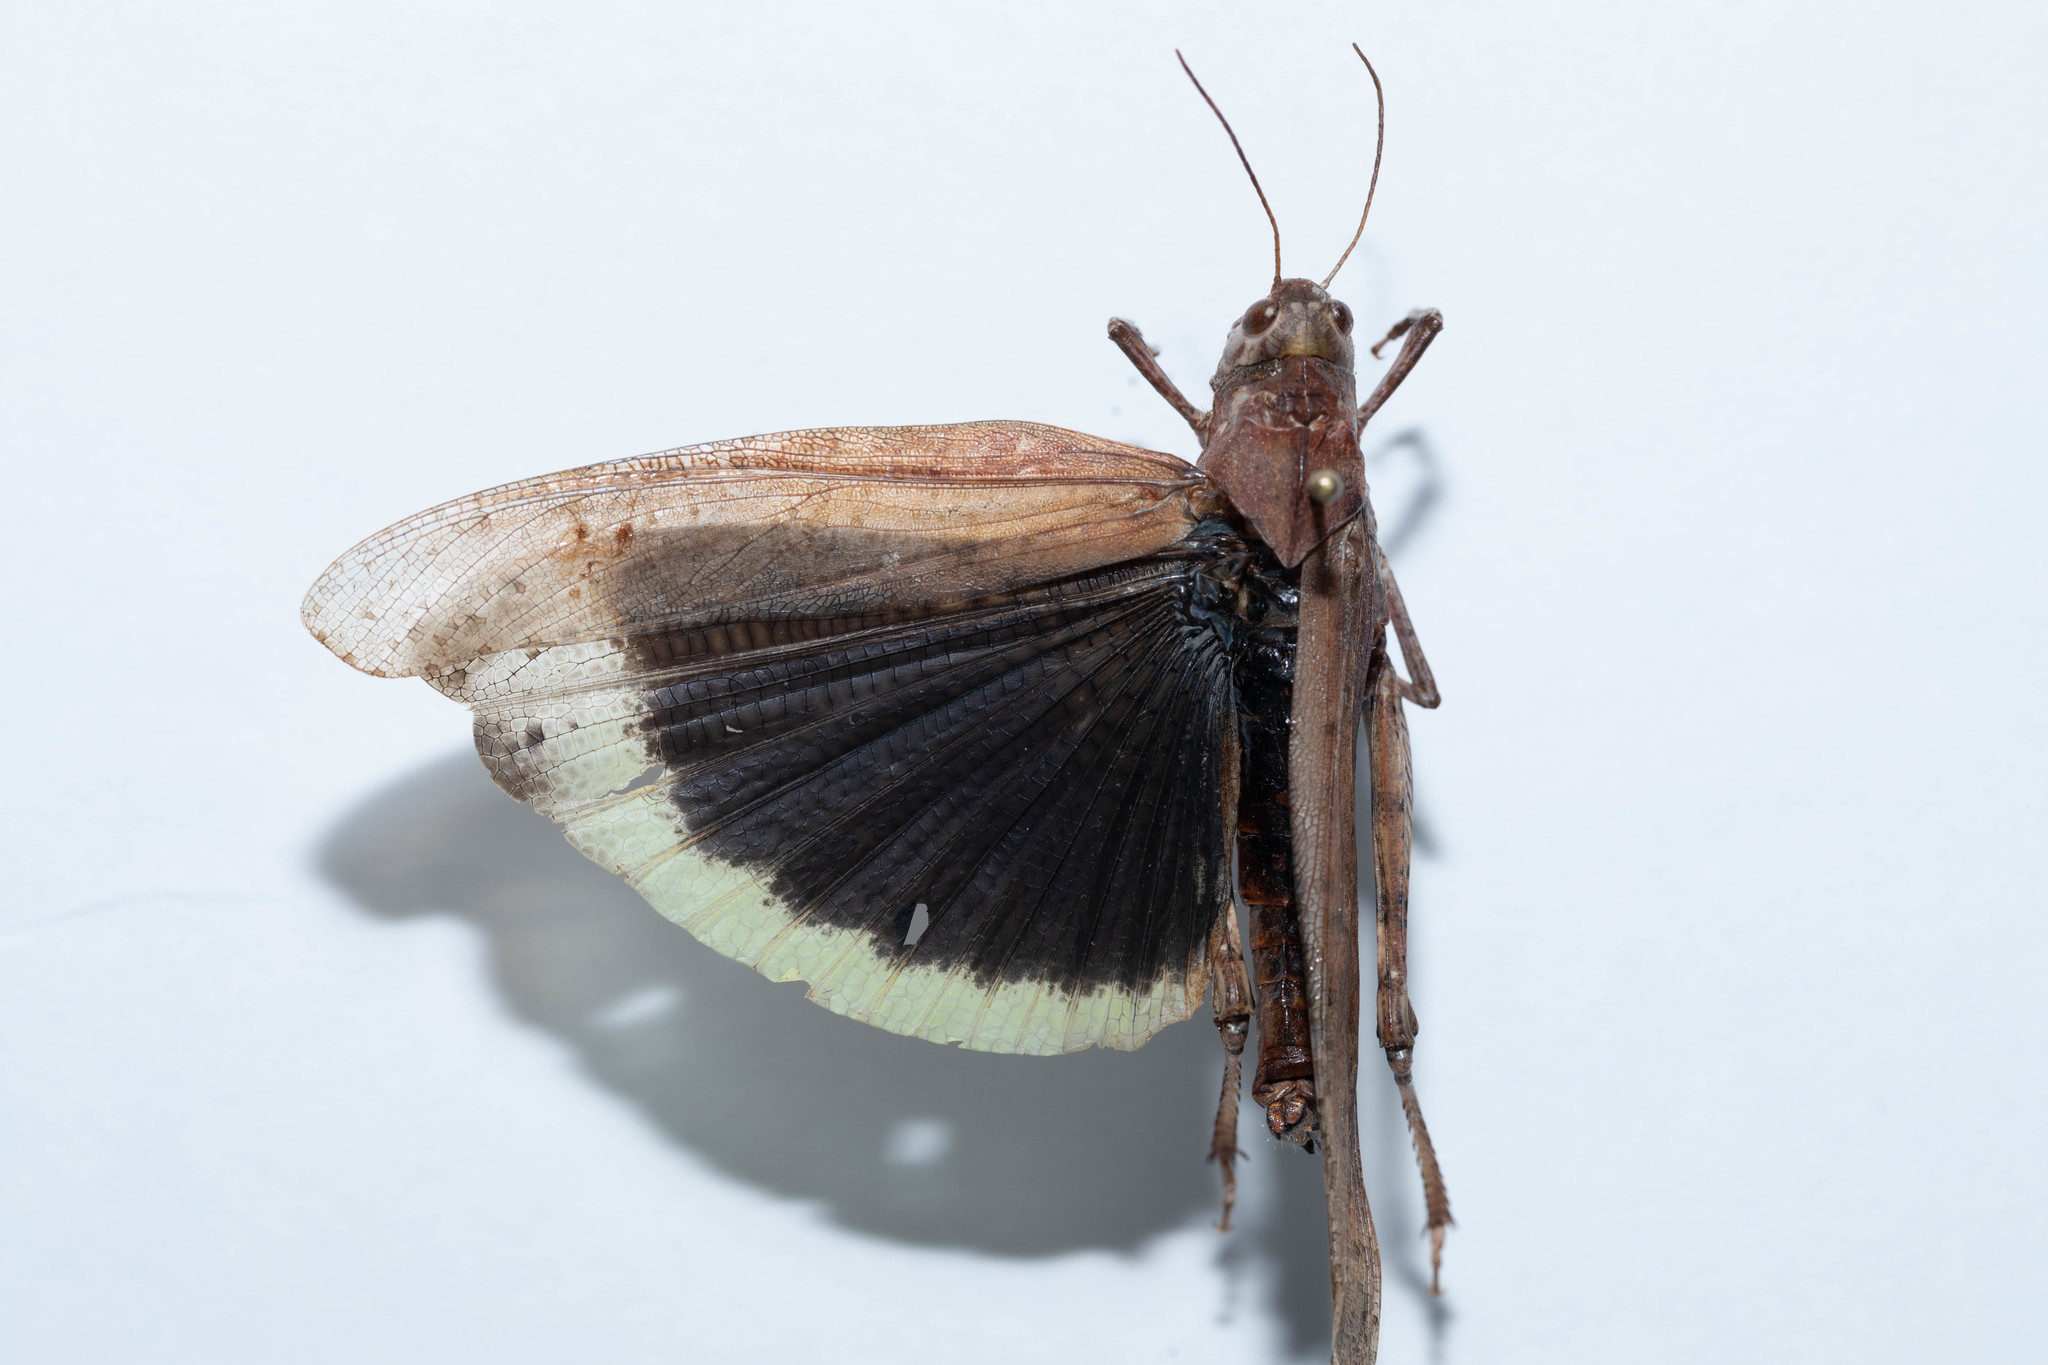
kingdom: Animalia
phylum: Arthropoda
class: Insecta
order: Orthoptera
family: Acrididae
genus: Dissosteira
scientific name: Dissosteira carolina
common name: Carolina grasshopper
